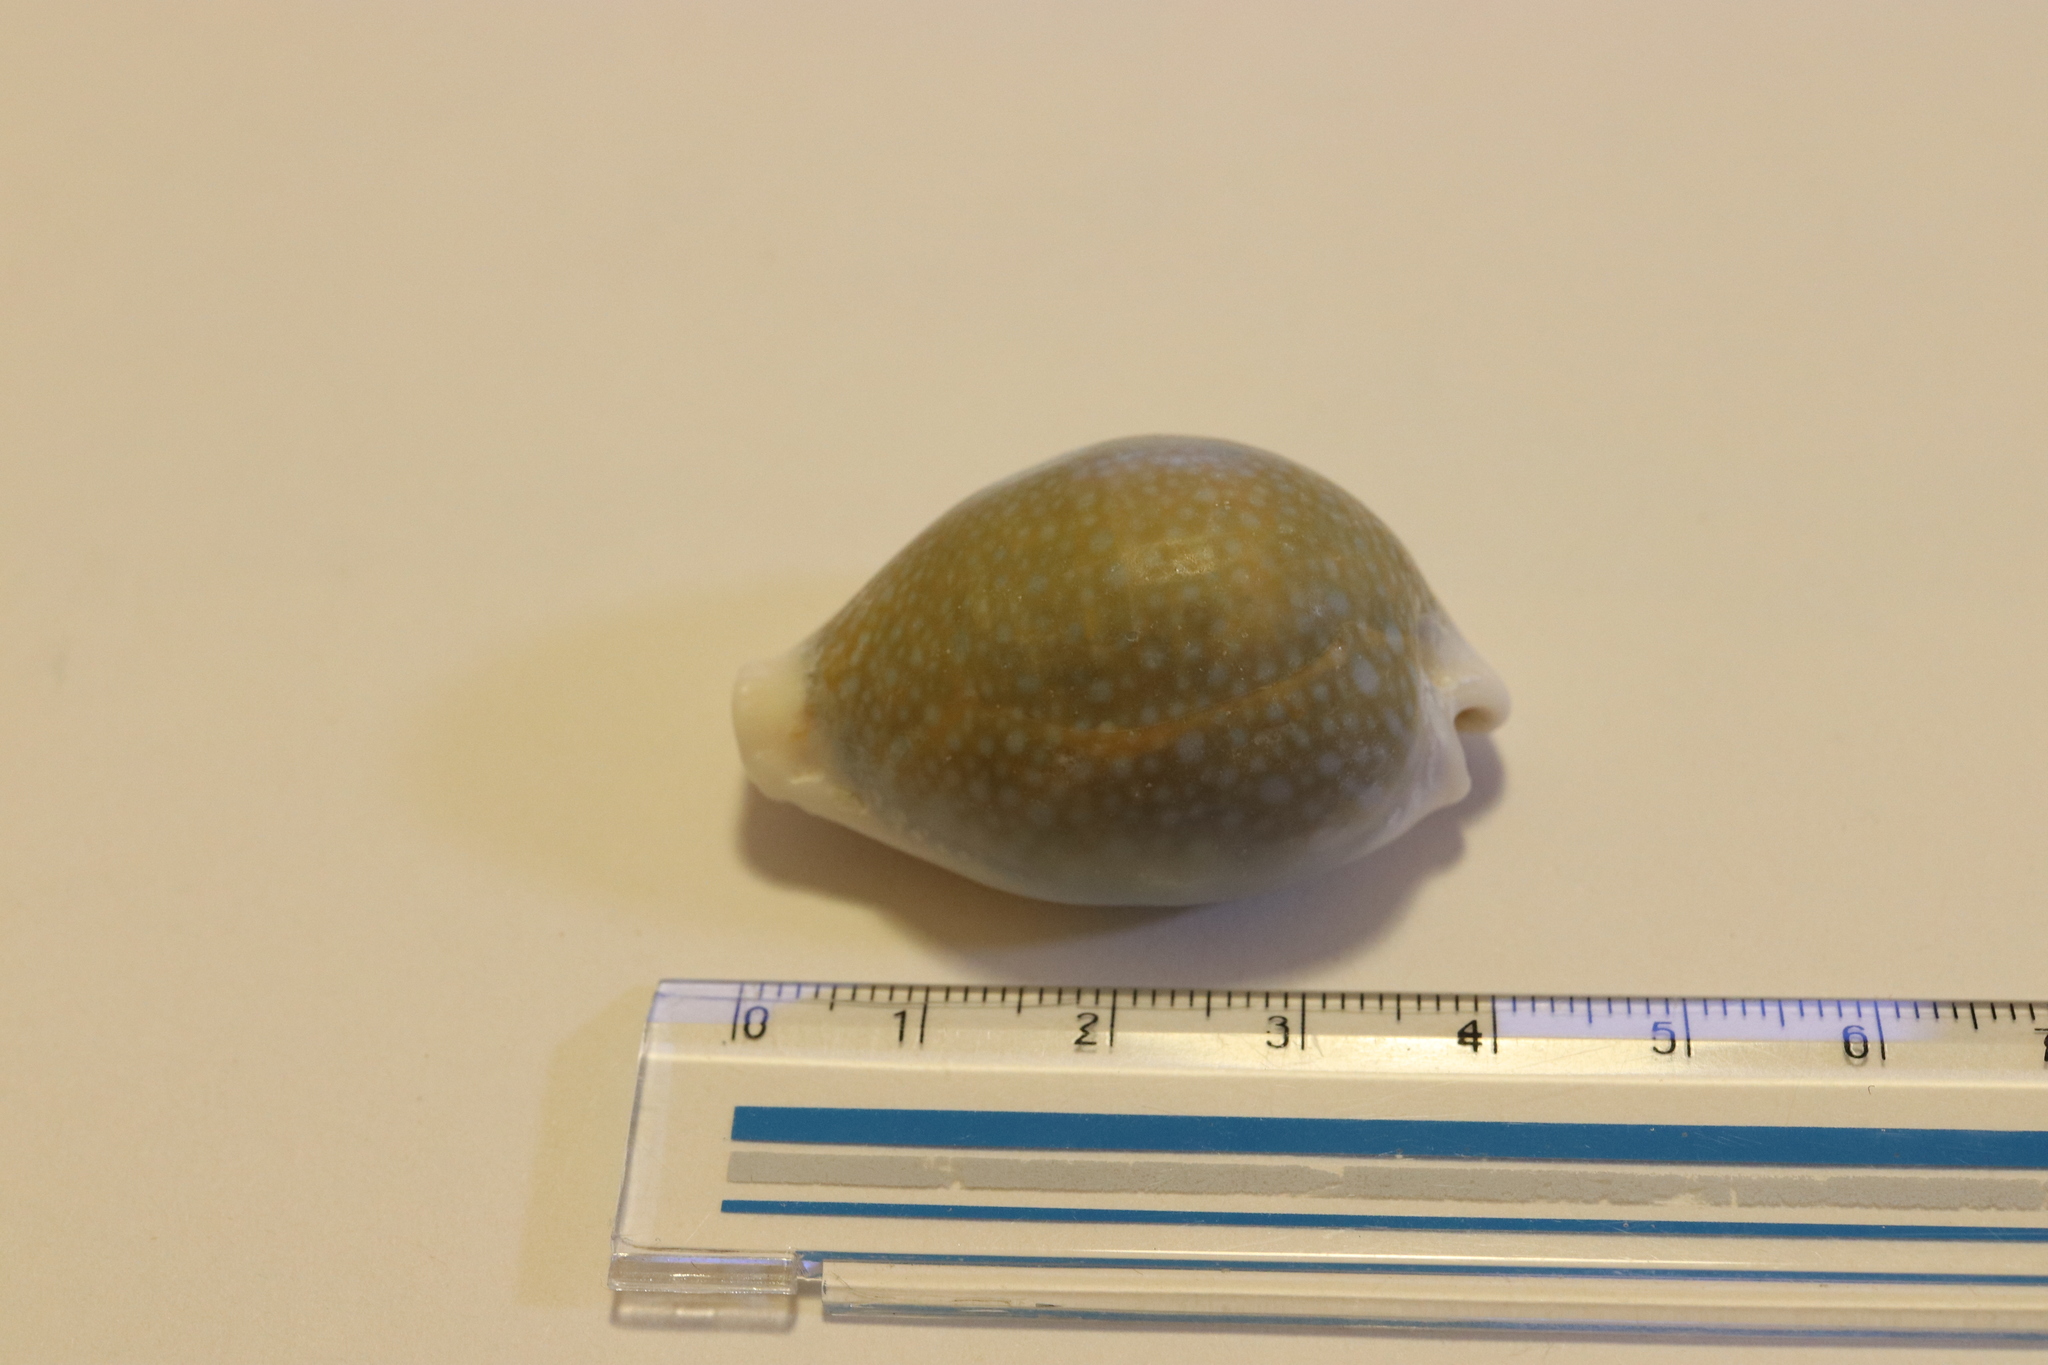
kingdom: Animalia
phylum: Mollusca
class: Gastropoda
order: Littorinimorpha
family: Cypraeidae
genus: Naria
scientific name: Naria miliaris
